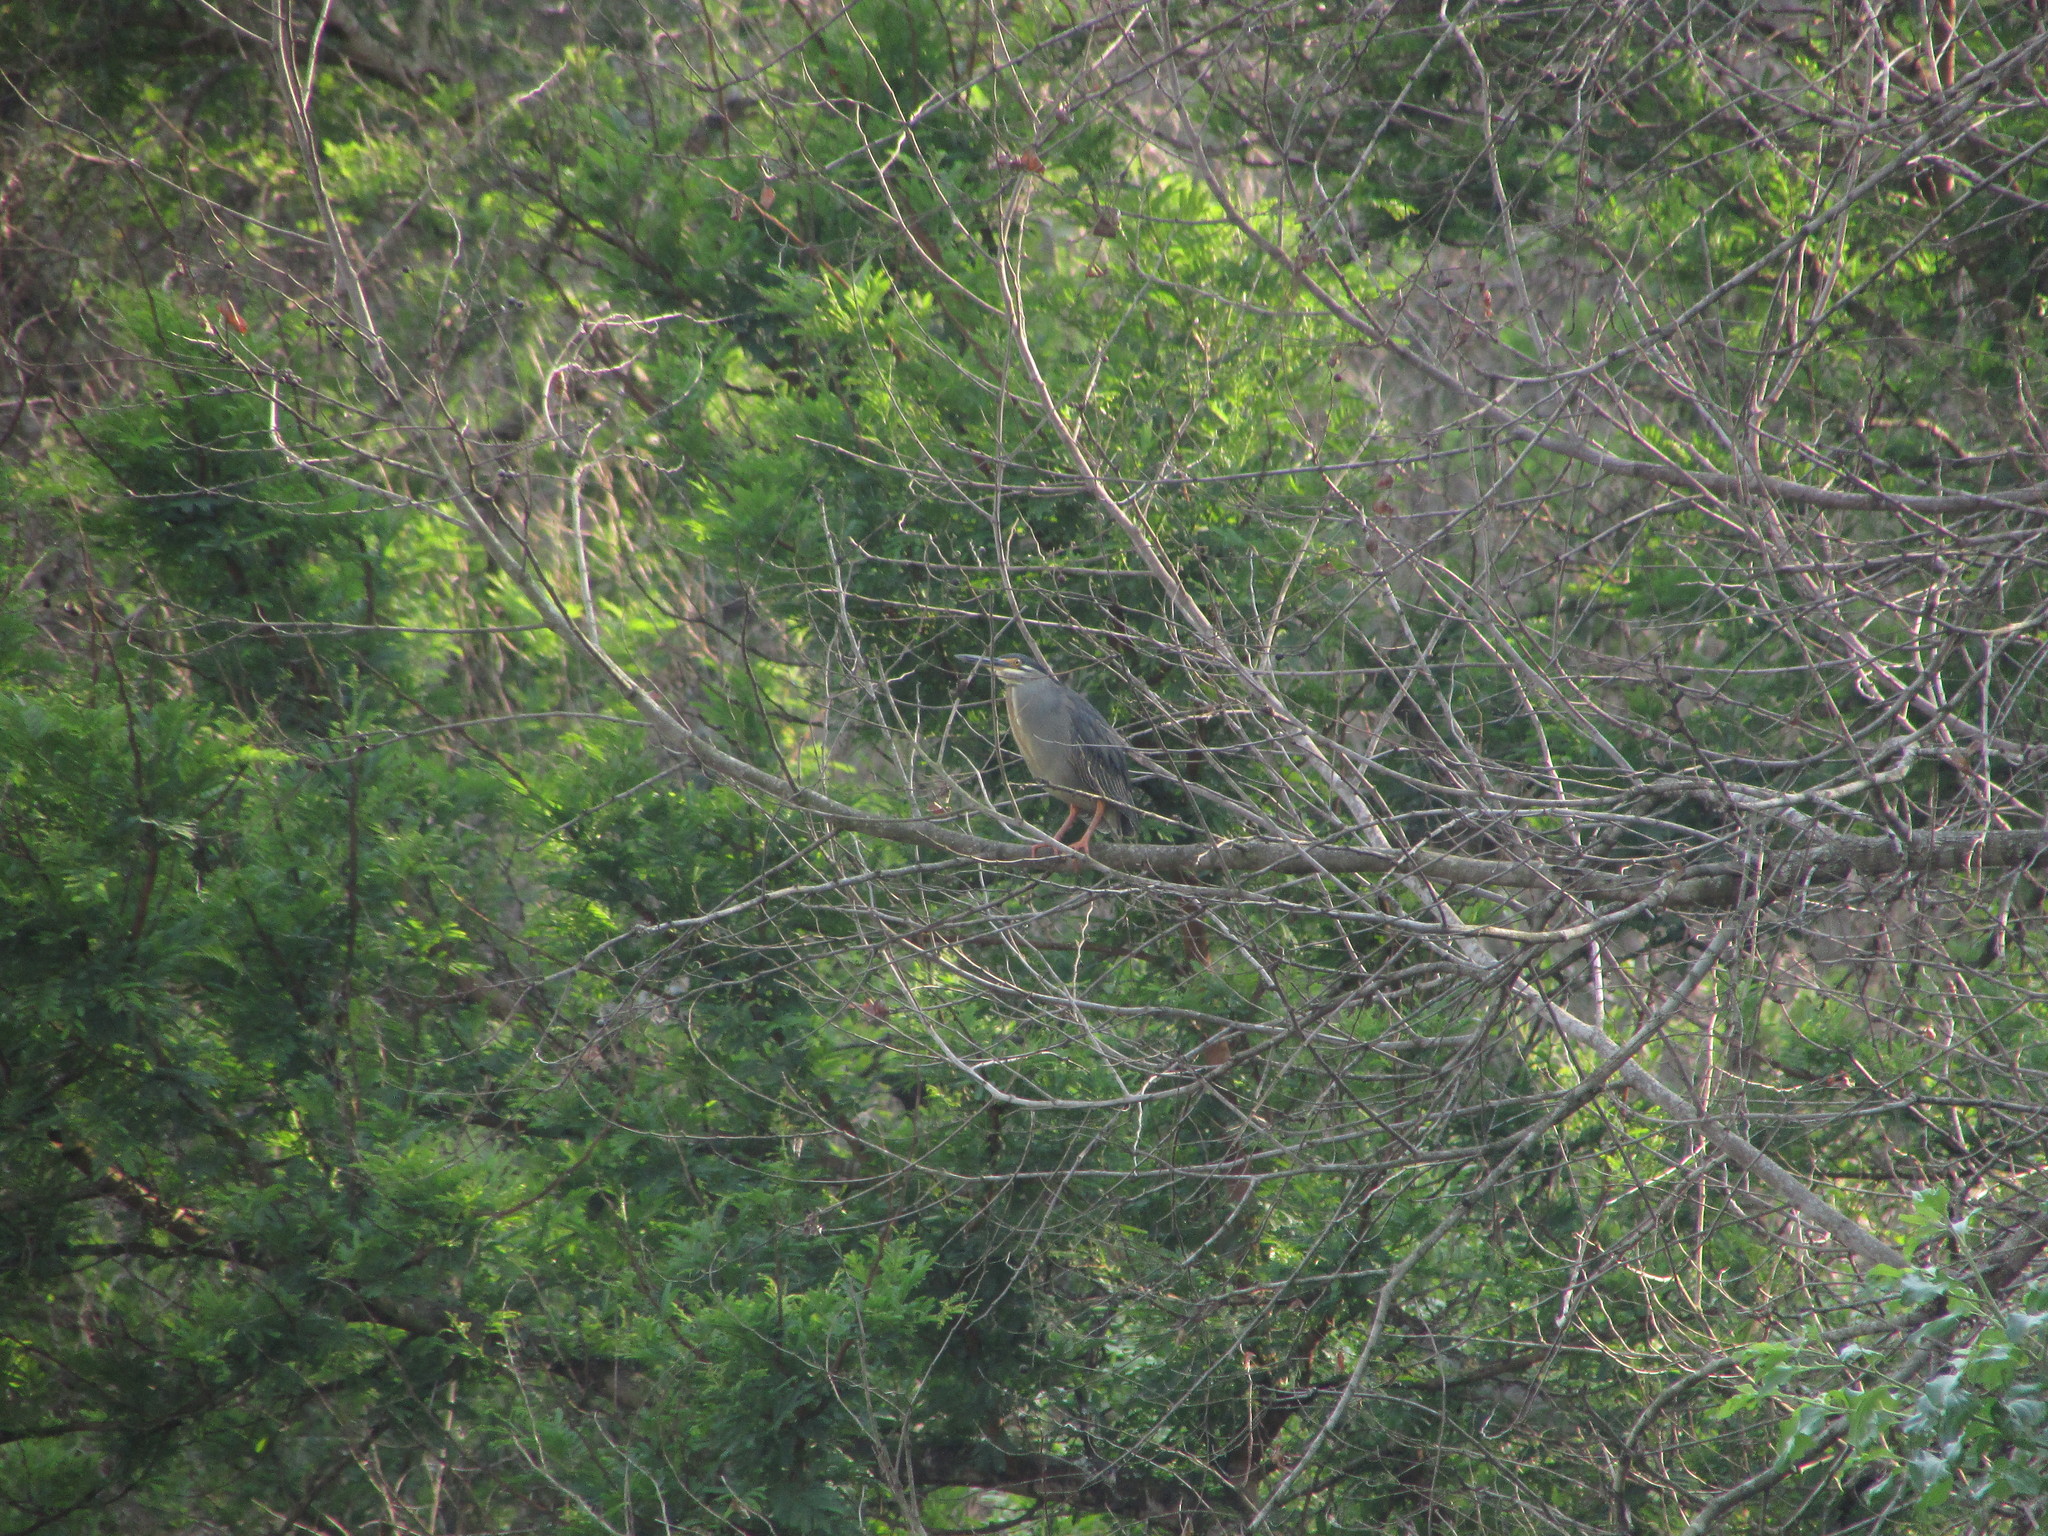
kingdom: Animalia
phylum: Chordata
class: Aves
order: Pelecaniformes
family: Ardeidae
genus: Butorides
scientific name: Butorides striata
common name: Striated heron
